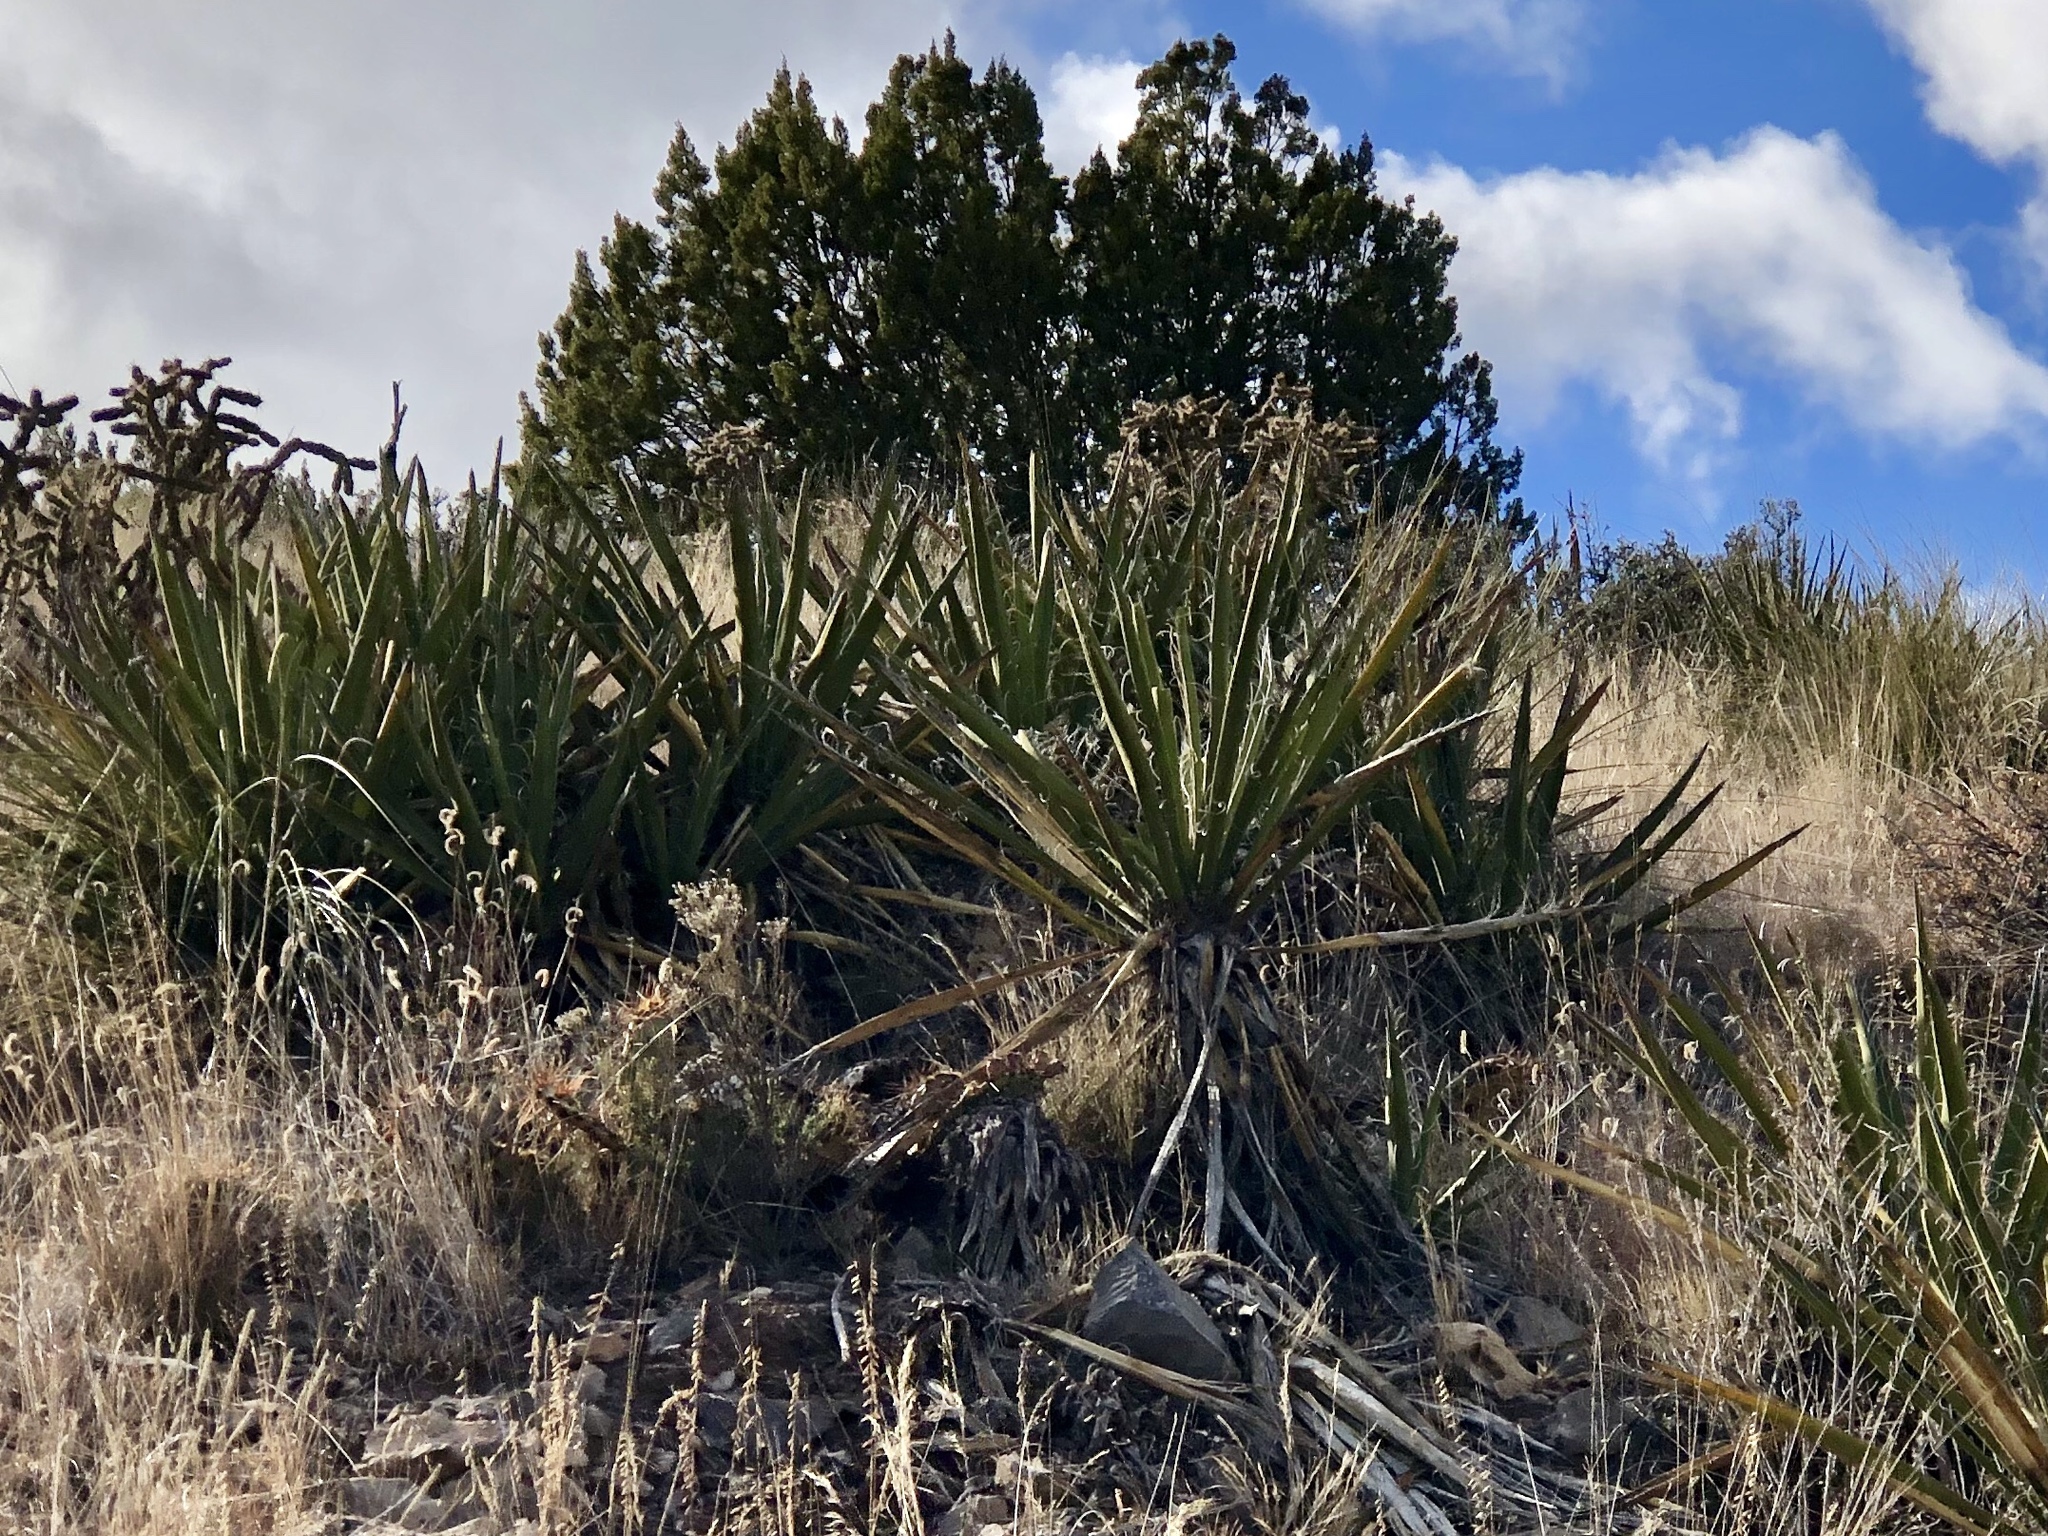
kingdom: Plantae
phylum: Tracheophyta
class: Liliopsida
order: Asparagales
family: Asparagaceae
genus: Yucca
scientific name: Yucca baccata
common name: Banana yucca
